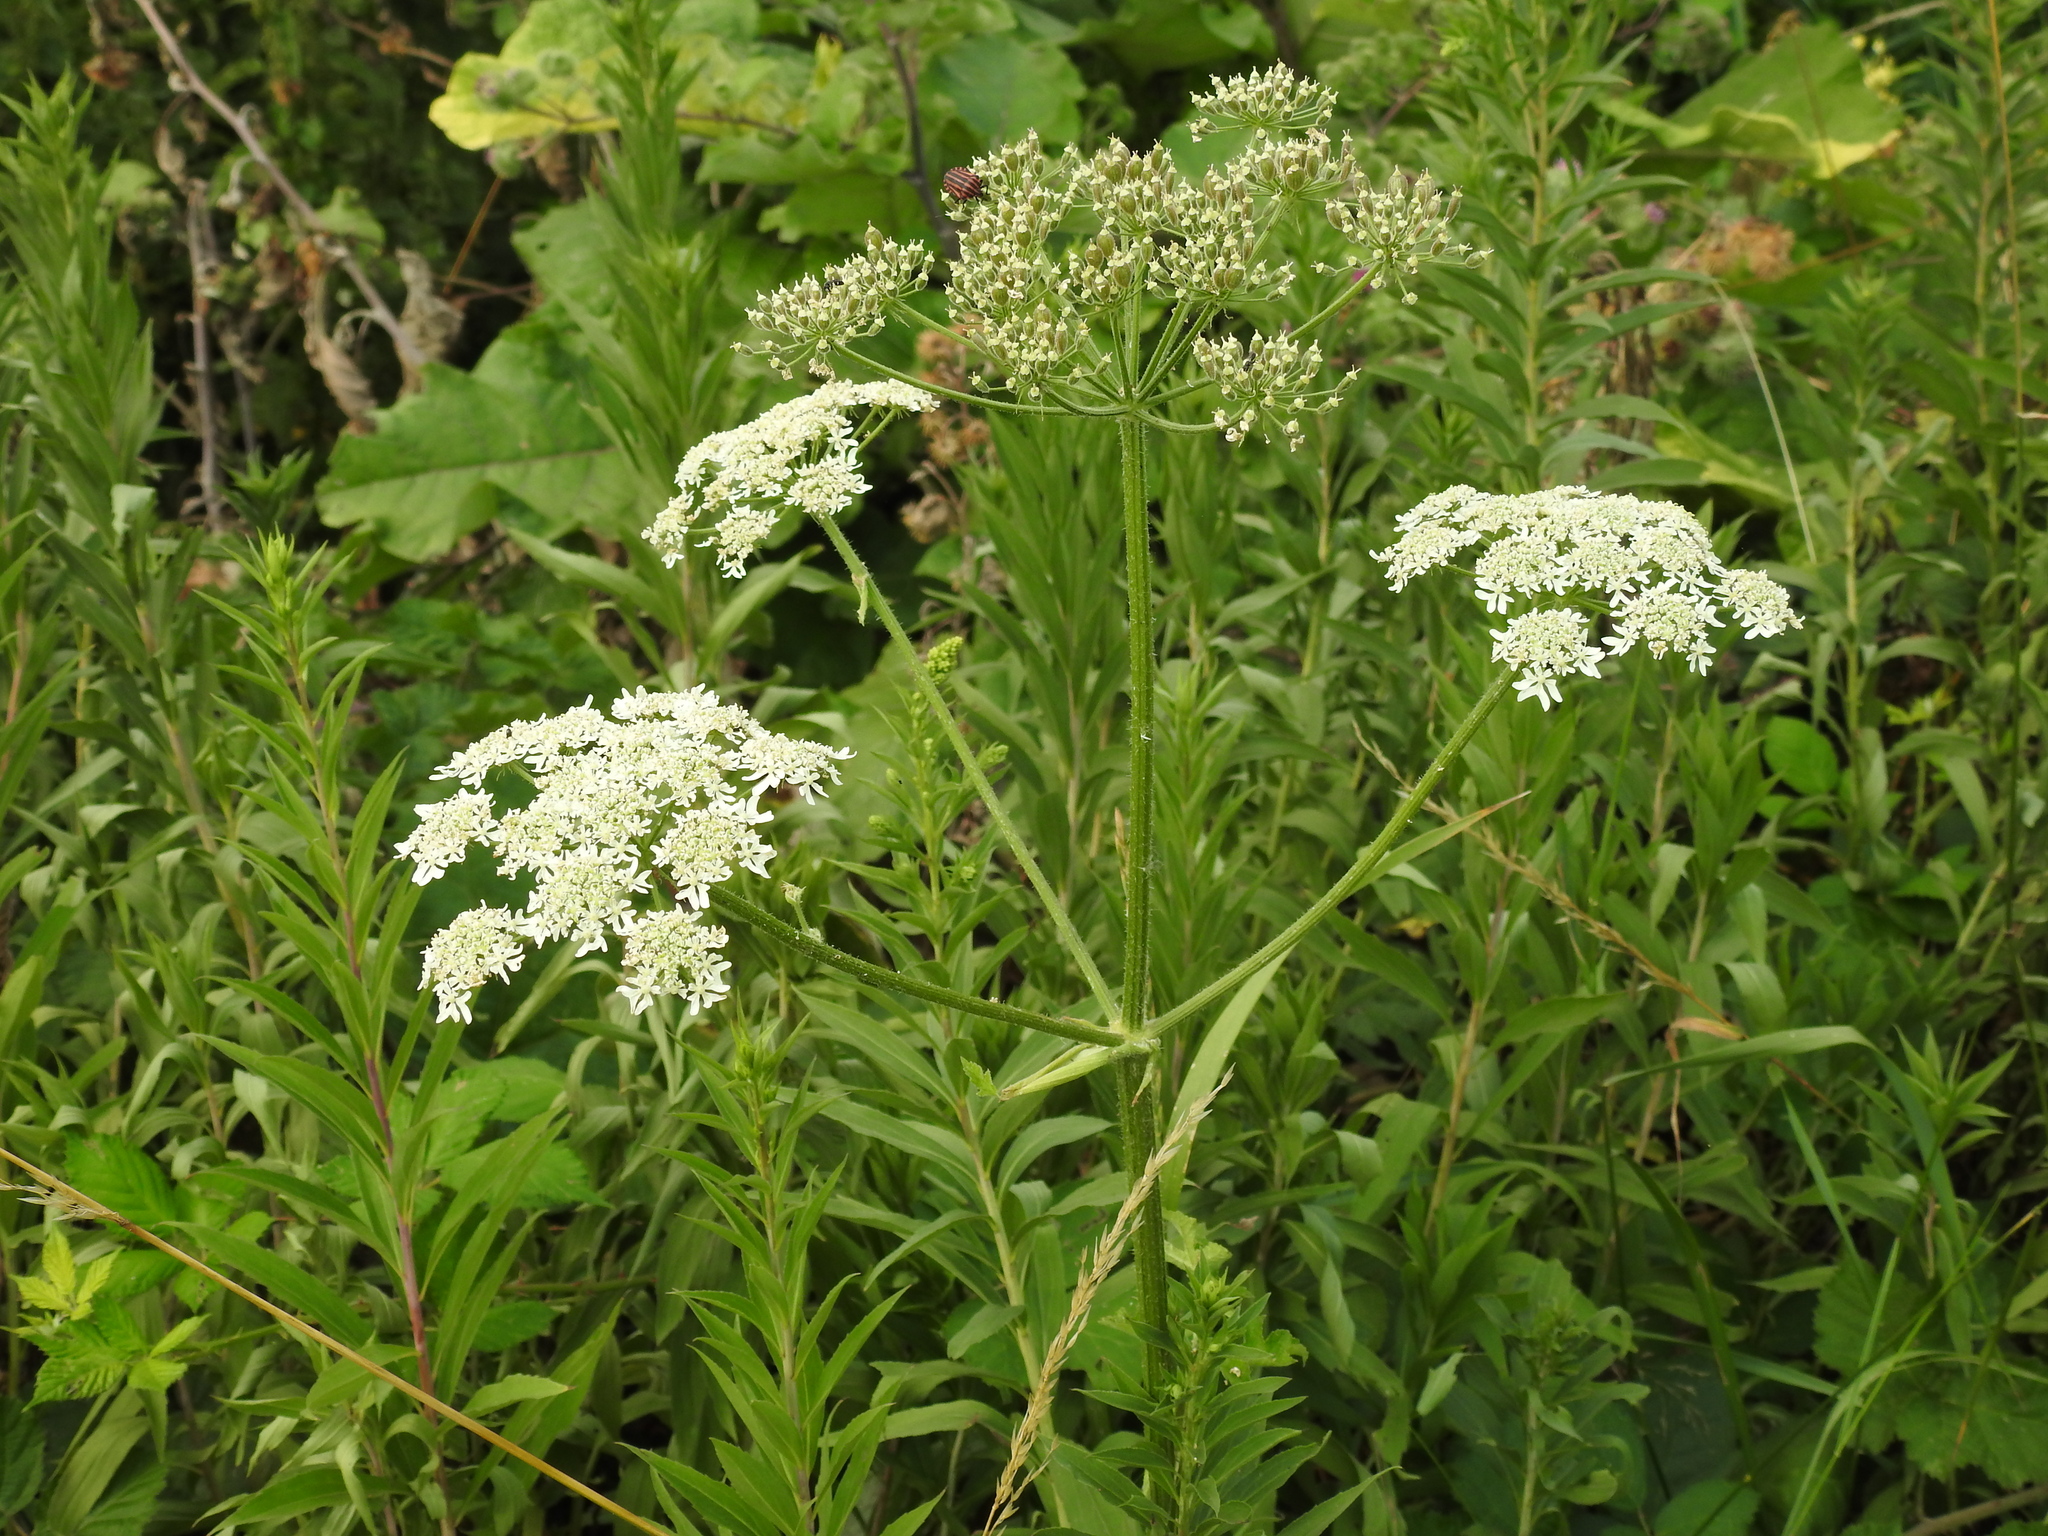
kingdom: Plantae
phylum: Tracheophyta
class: Magnoliopsida
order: Apiales
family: Apiaceae
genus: Heracleum
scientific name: Heracleum sphondylium
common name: Hogweed
